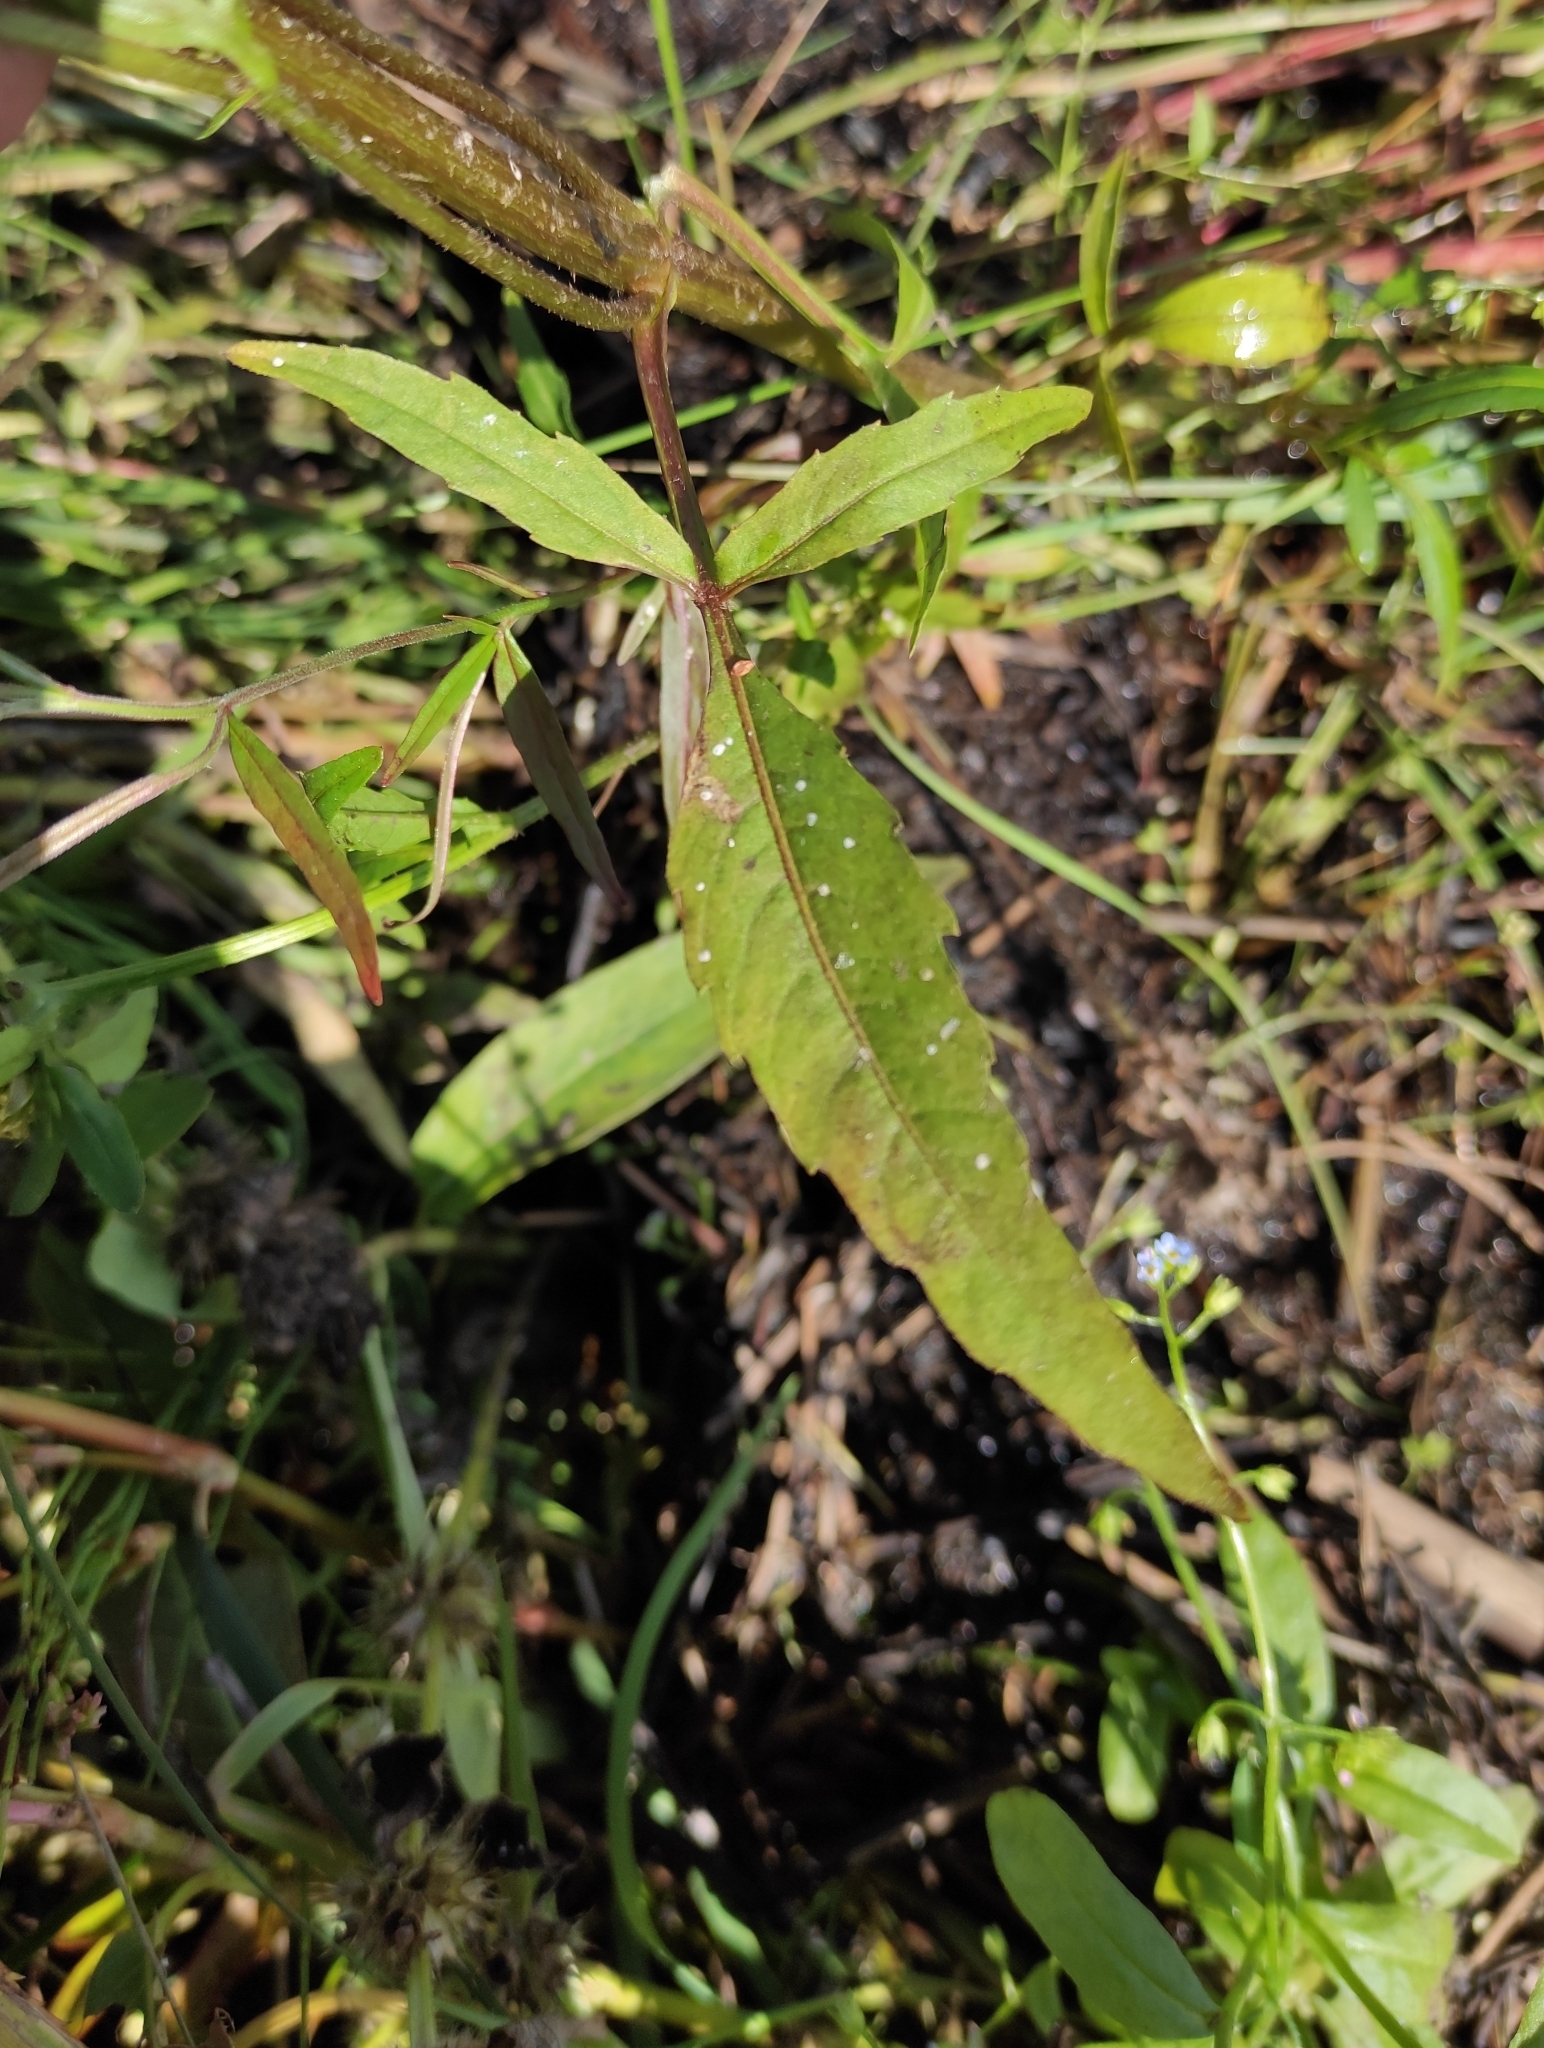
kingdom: Plantae
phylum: Tracheophyta
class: Magnoliopsida
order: Asterales
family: Asteraceae
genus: Bidens
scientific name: Bidens radiata
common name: Radiating bur-marigold
